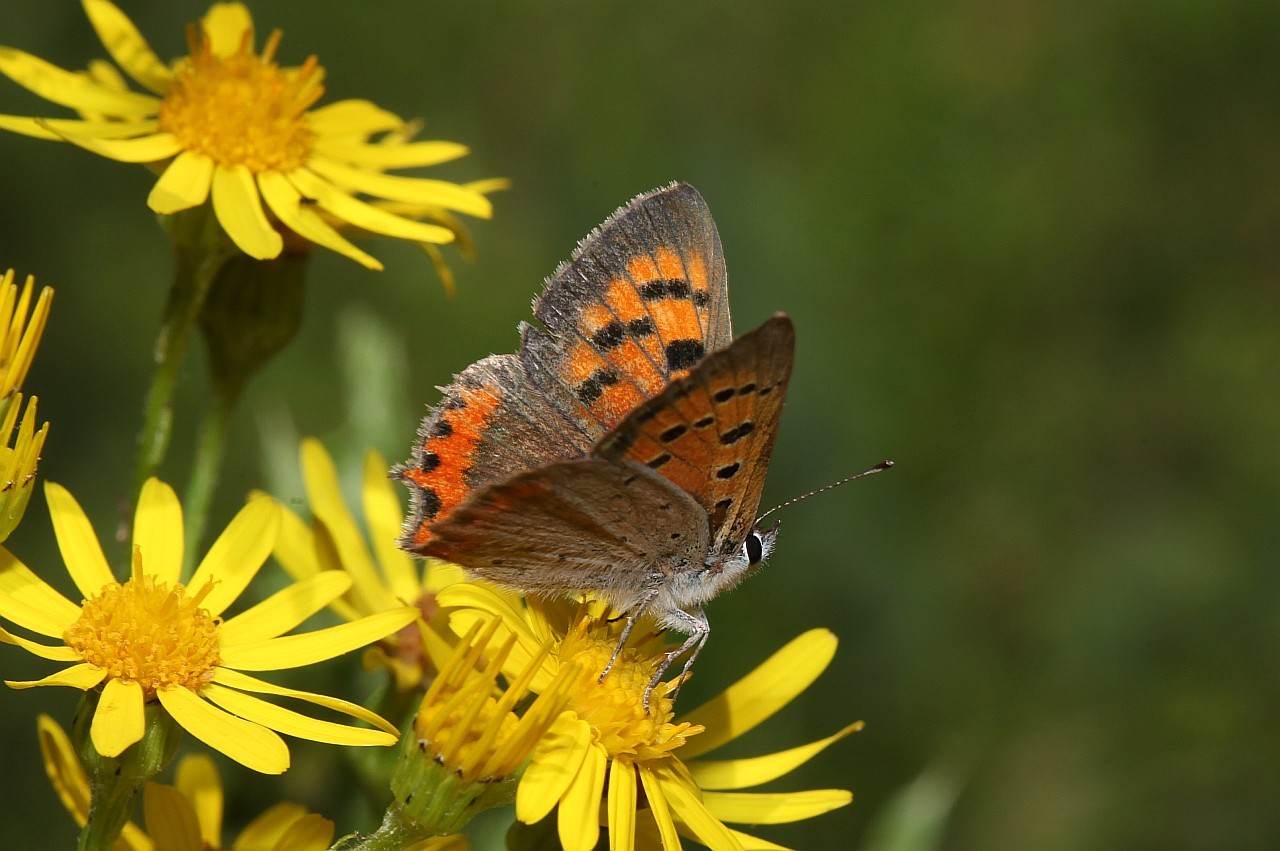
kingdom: Animalia
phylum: Arthropoda
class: Insecta
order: Lepidoptera
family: Lycaenidae
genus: Lycaena
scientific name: Lycaena phlaeas
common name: Small copper
